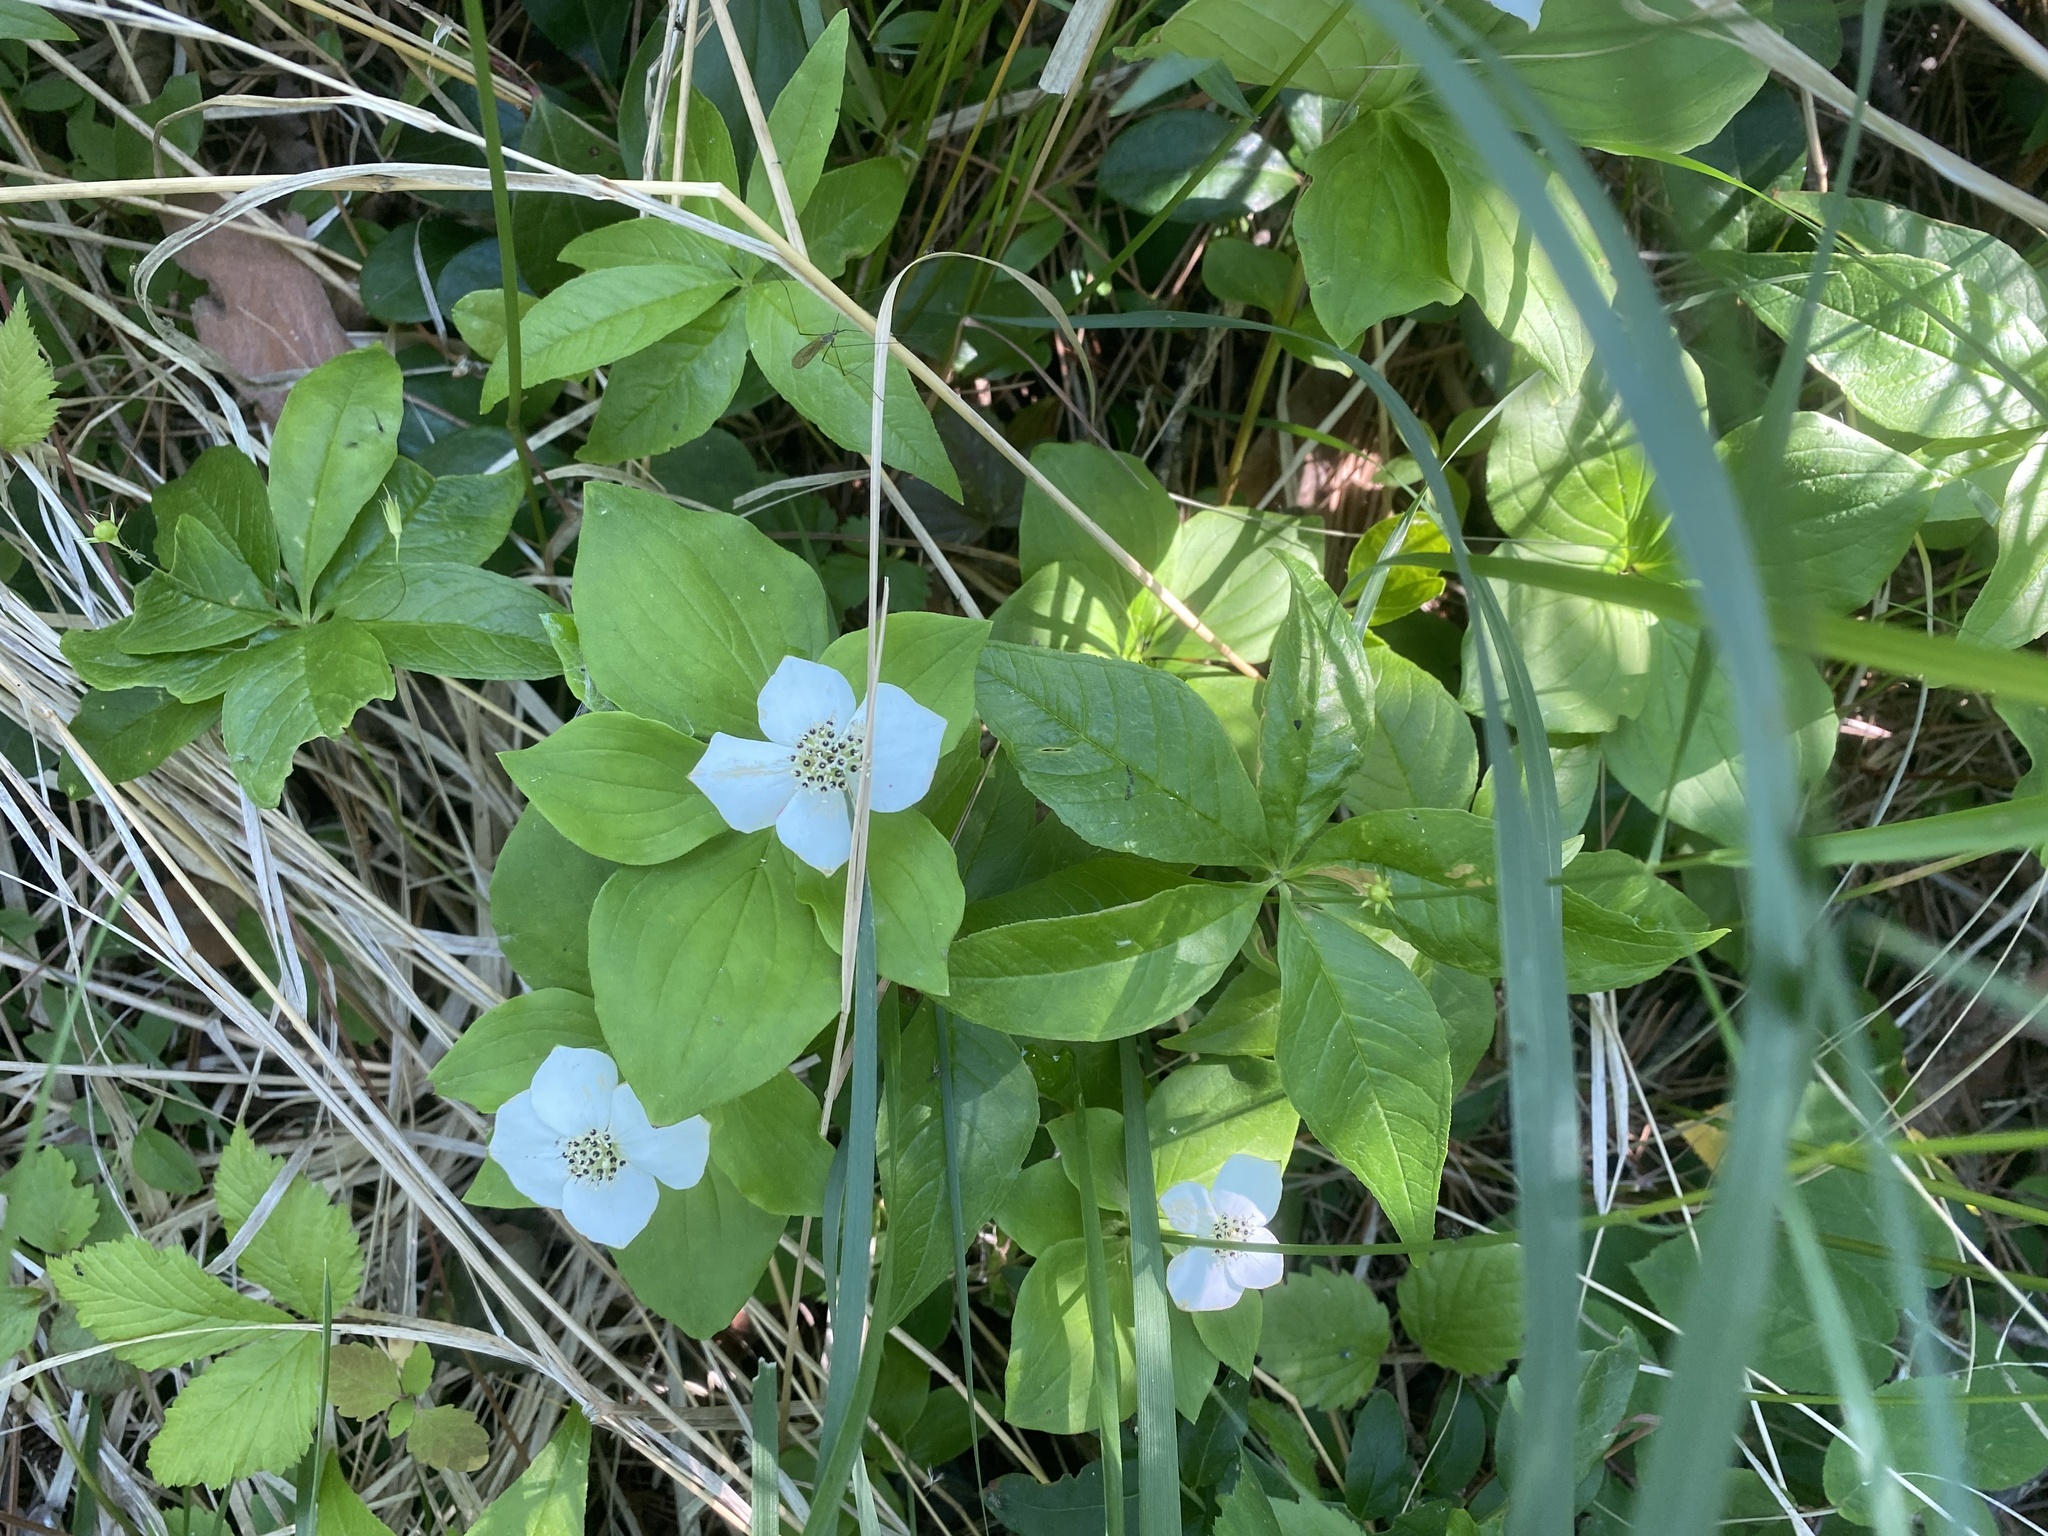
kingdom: Plantae
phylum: Tracheophyta
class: Magnoliopsida
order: Cornales
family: Cornaceae
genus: Cornus
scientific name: Cornus canadensis
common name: Creeping dogwood
